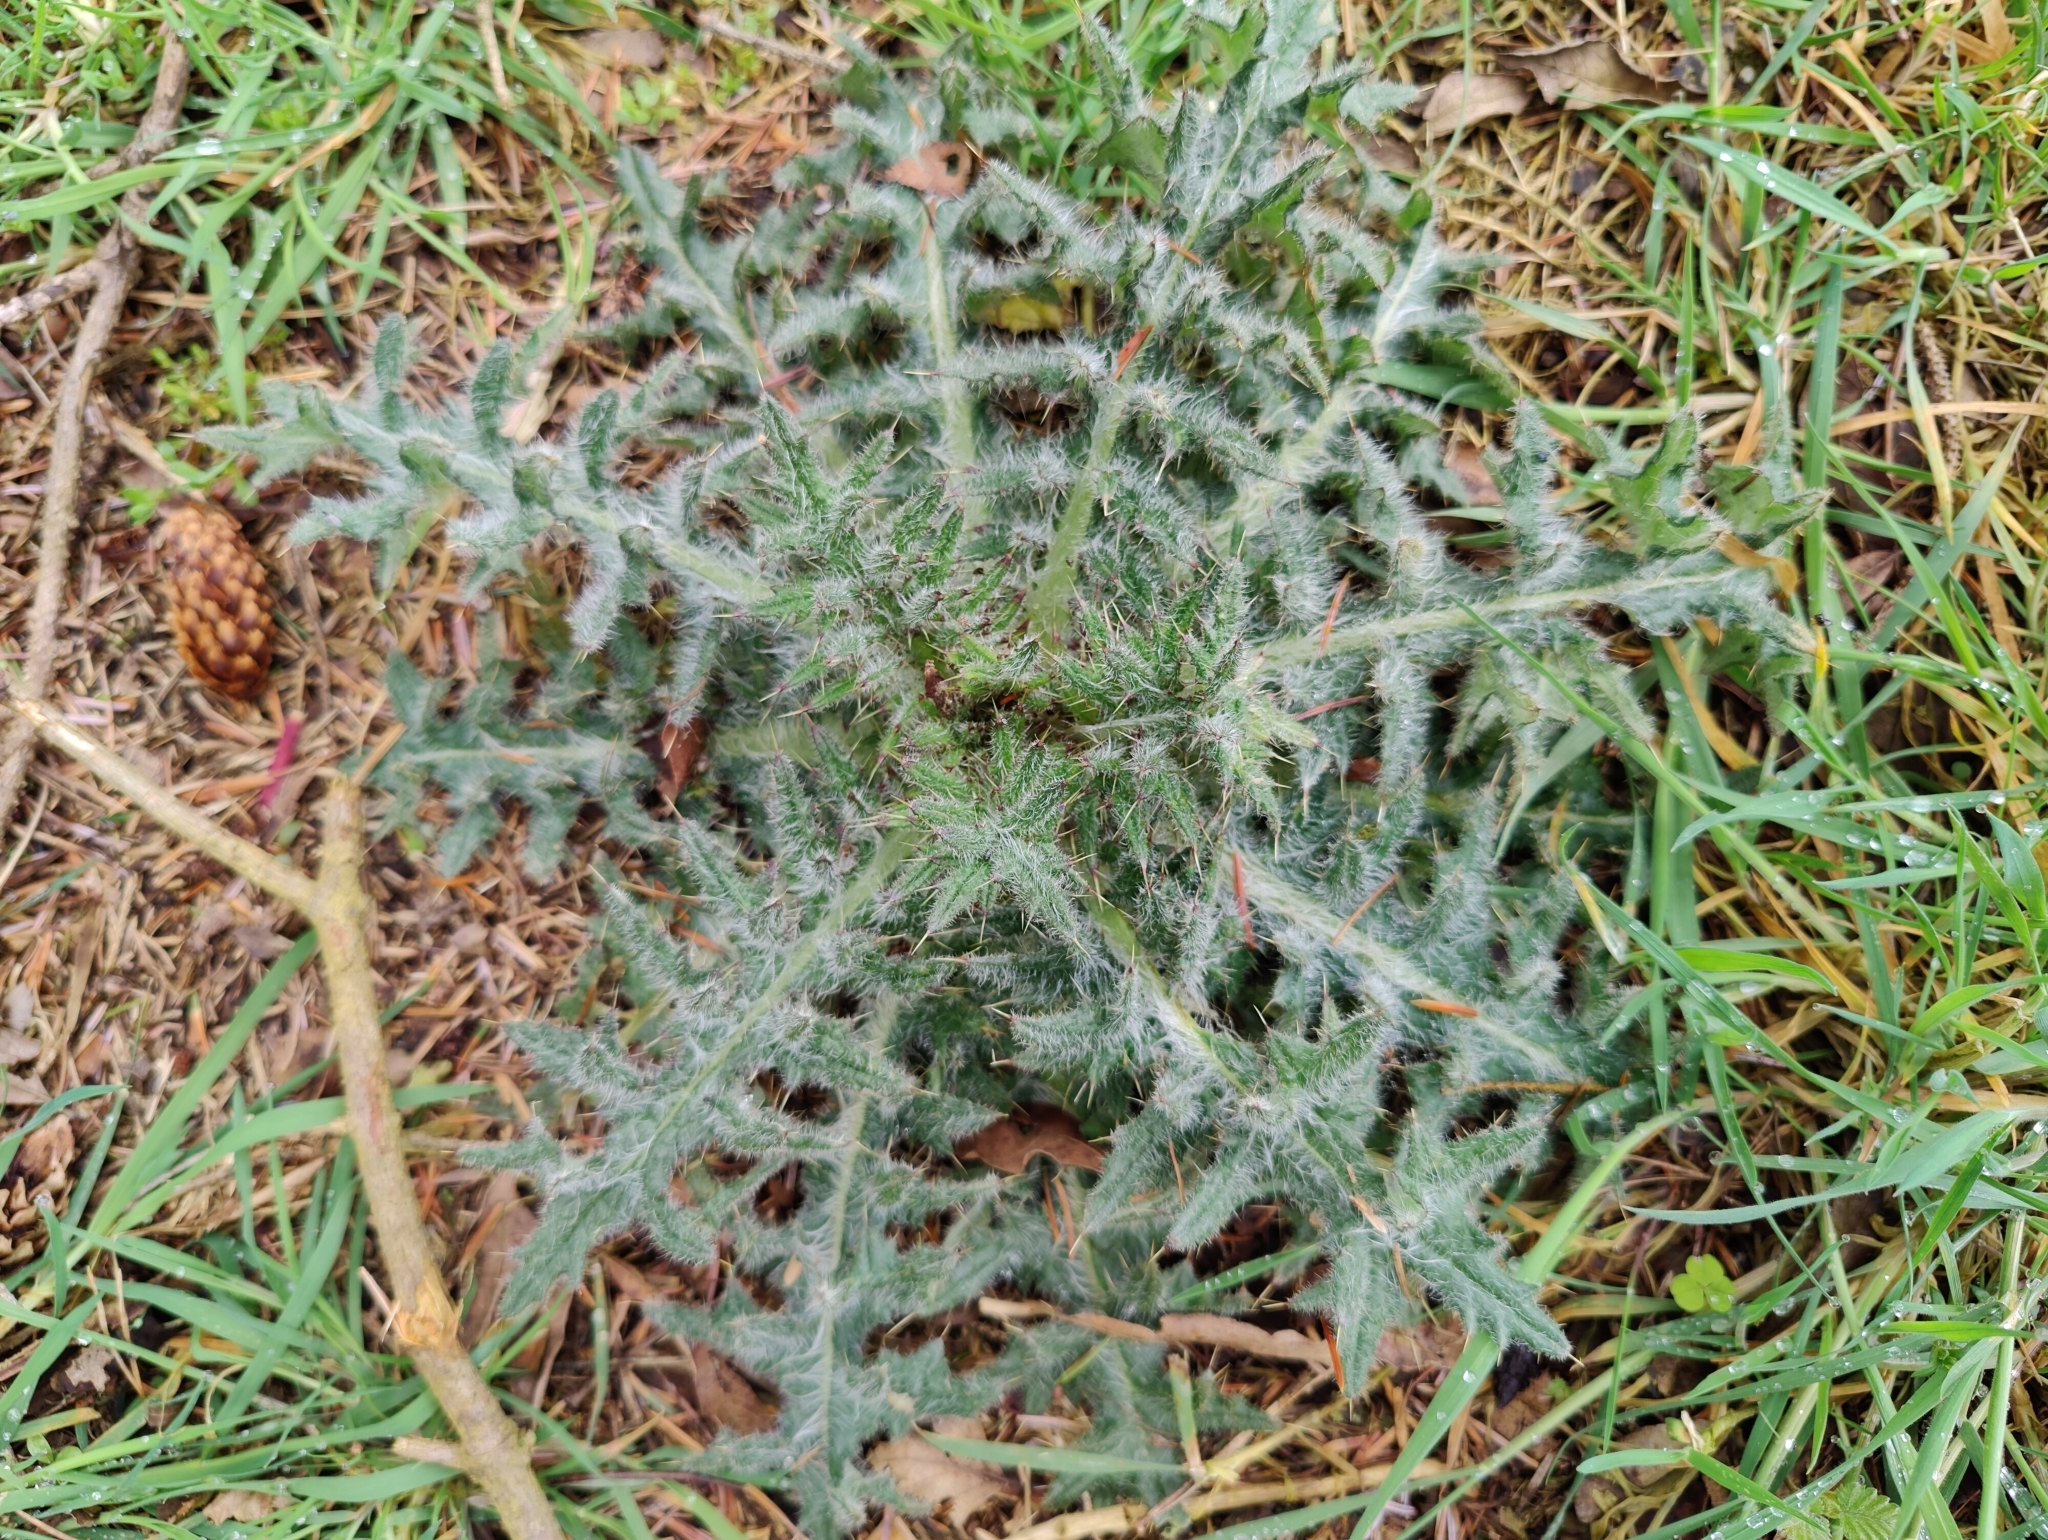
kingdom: Plantae
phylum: Tracheophyta
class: Magnoliopsida
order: Asterales
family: Asteraceae
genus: Cirsium
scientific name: Cirsium palustre
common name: Marsh thistle
